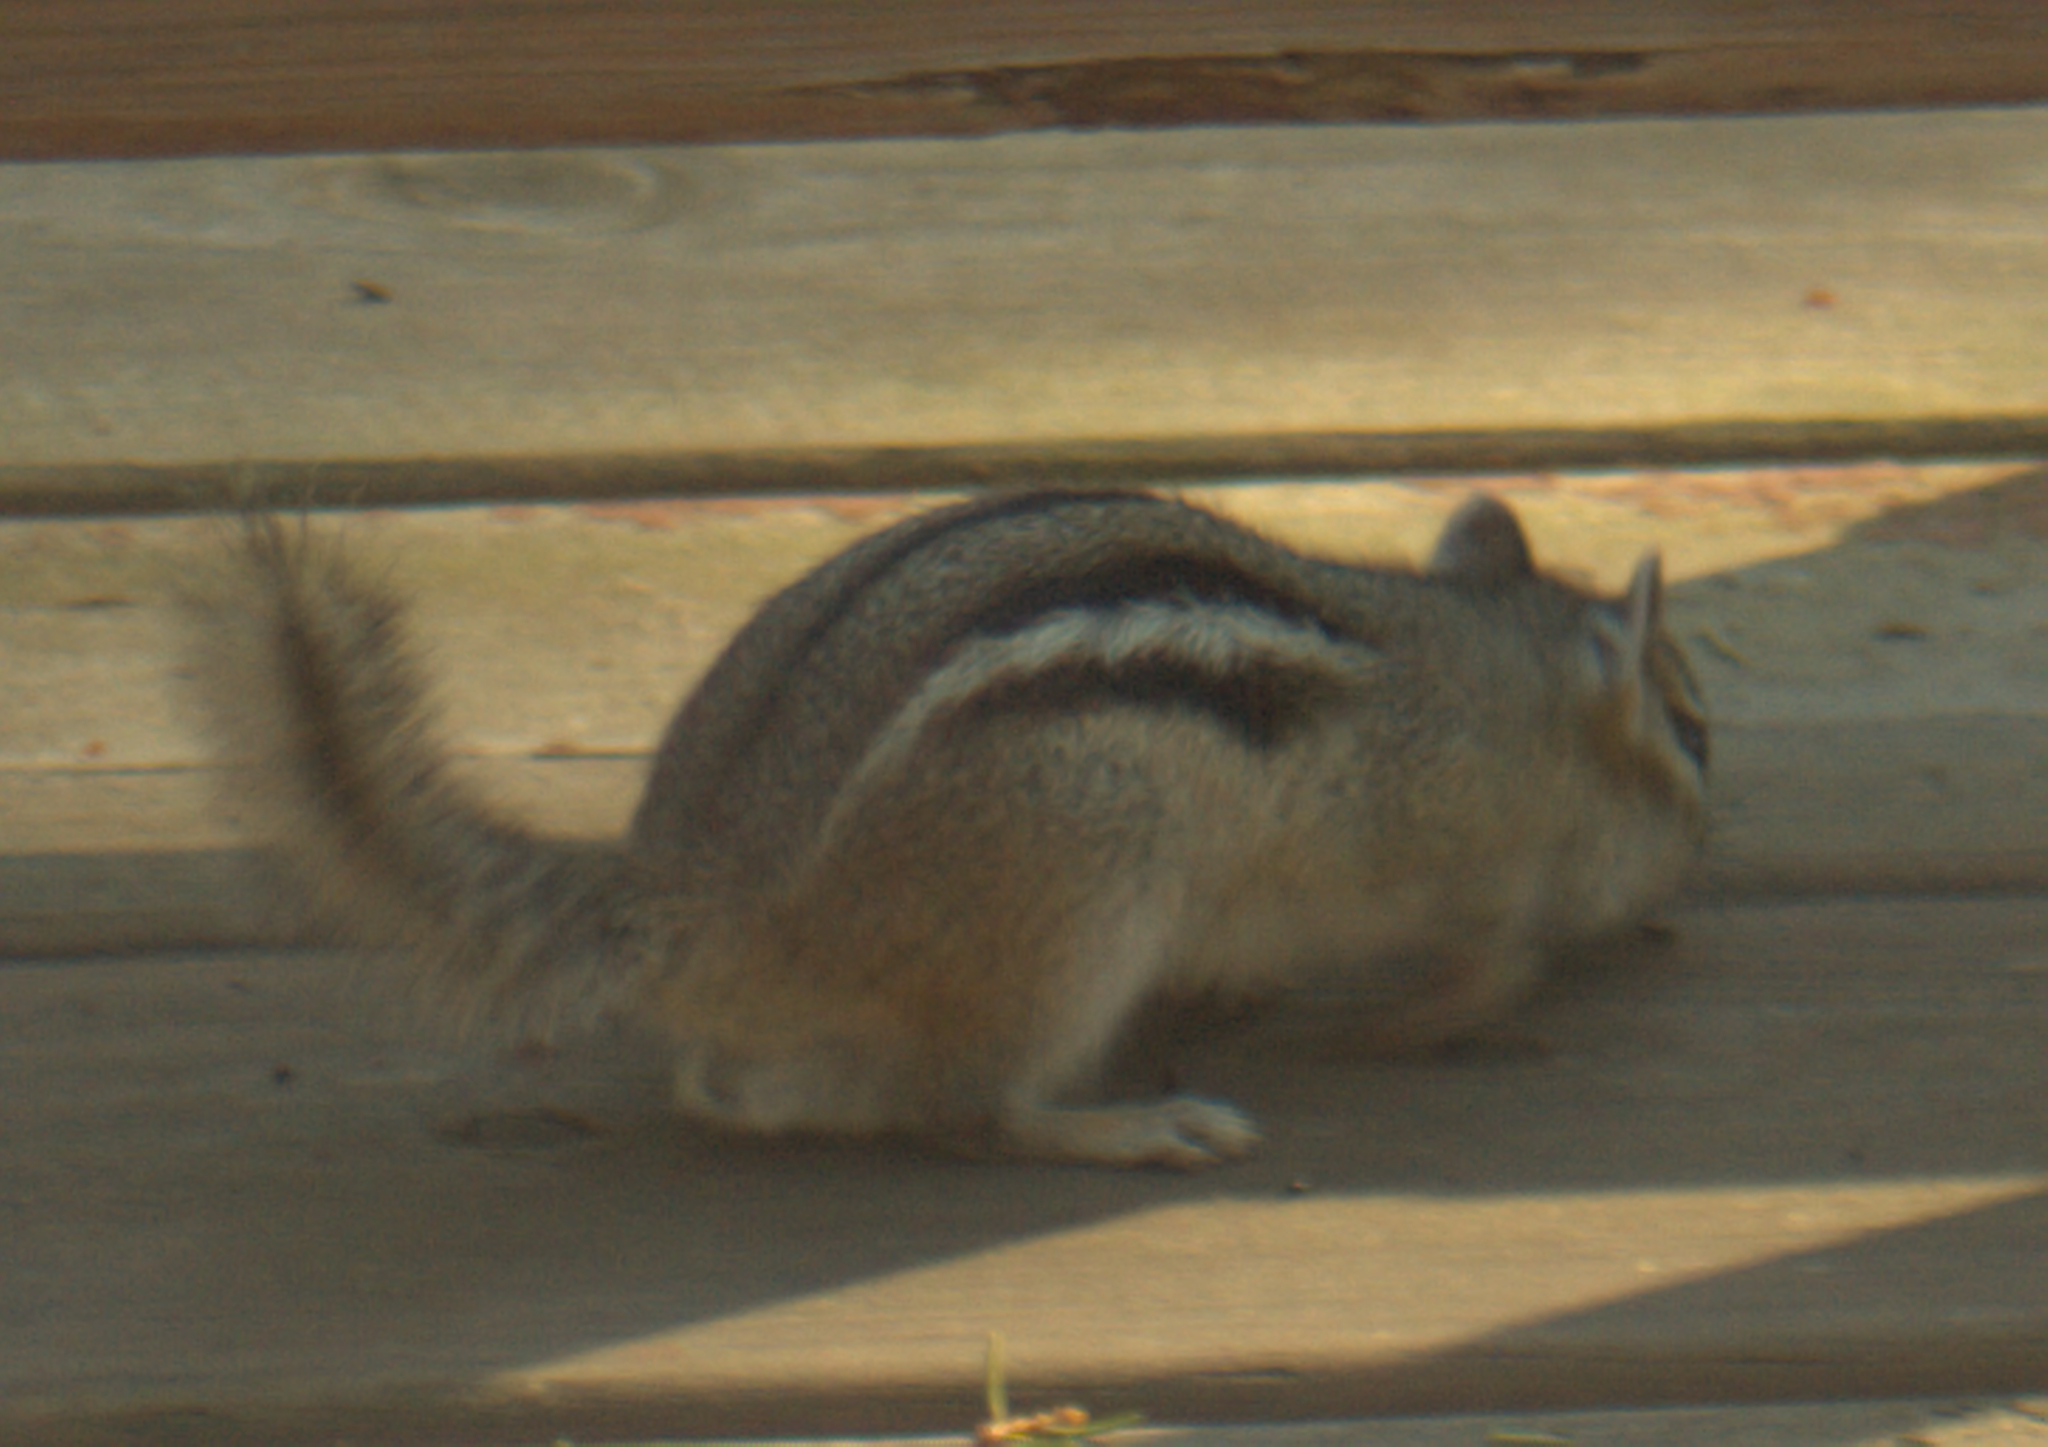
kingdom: Animalia
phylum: Chordata
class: Mammalia
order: Rodentia
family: Sciuridae
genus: Tamias
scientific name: Tamias striatus
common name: Eastern chipmunk
